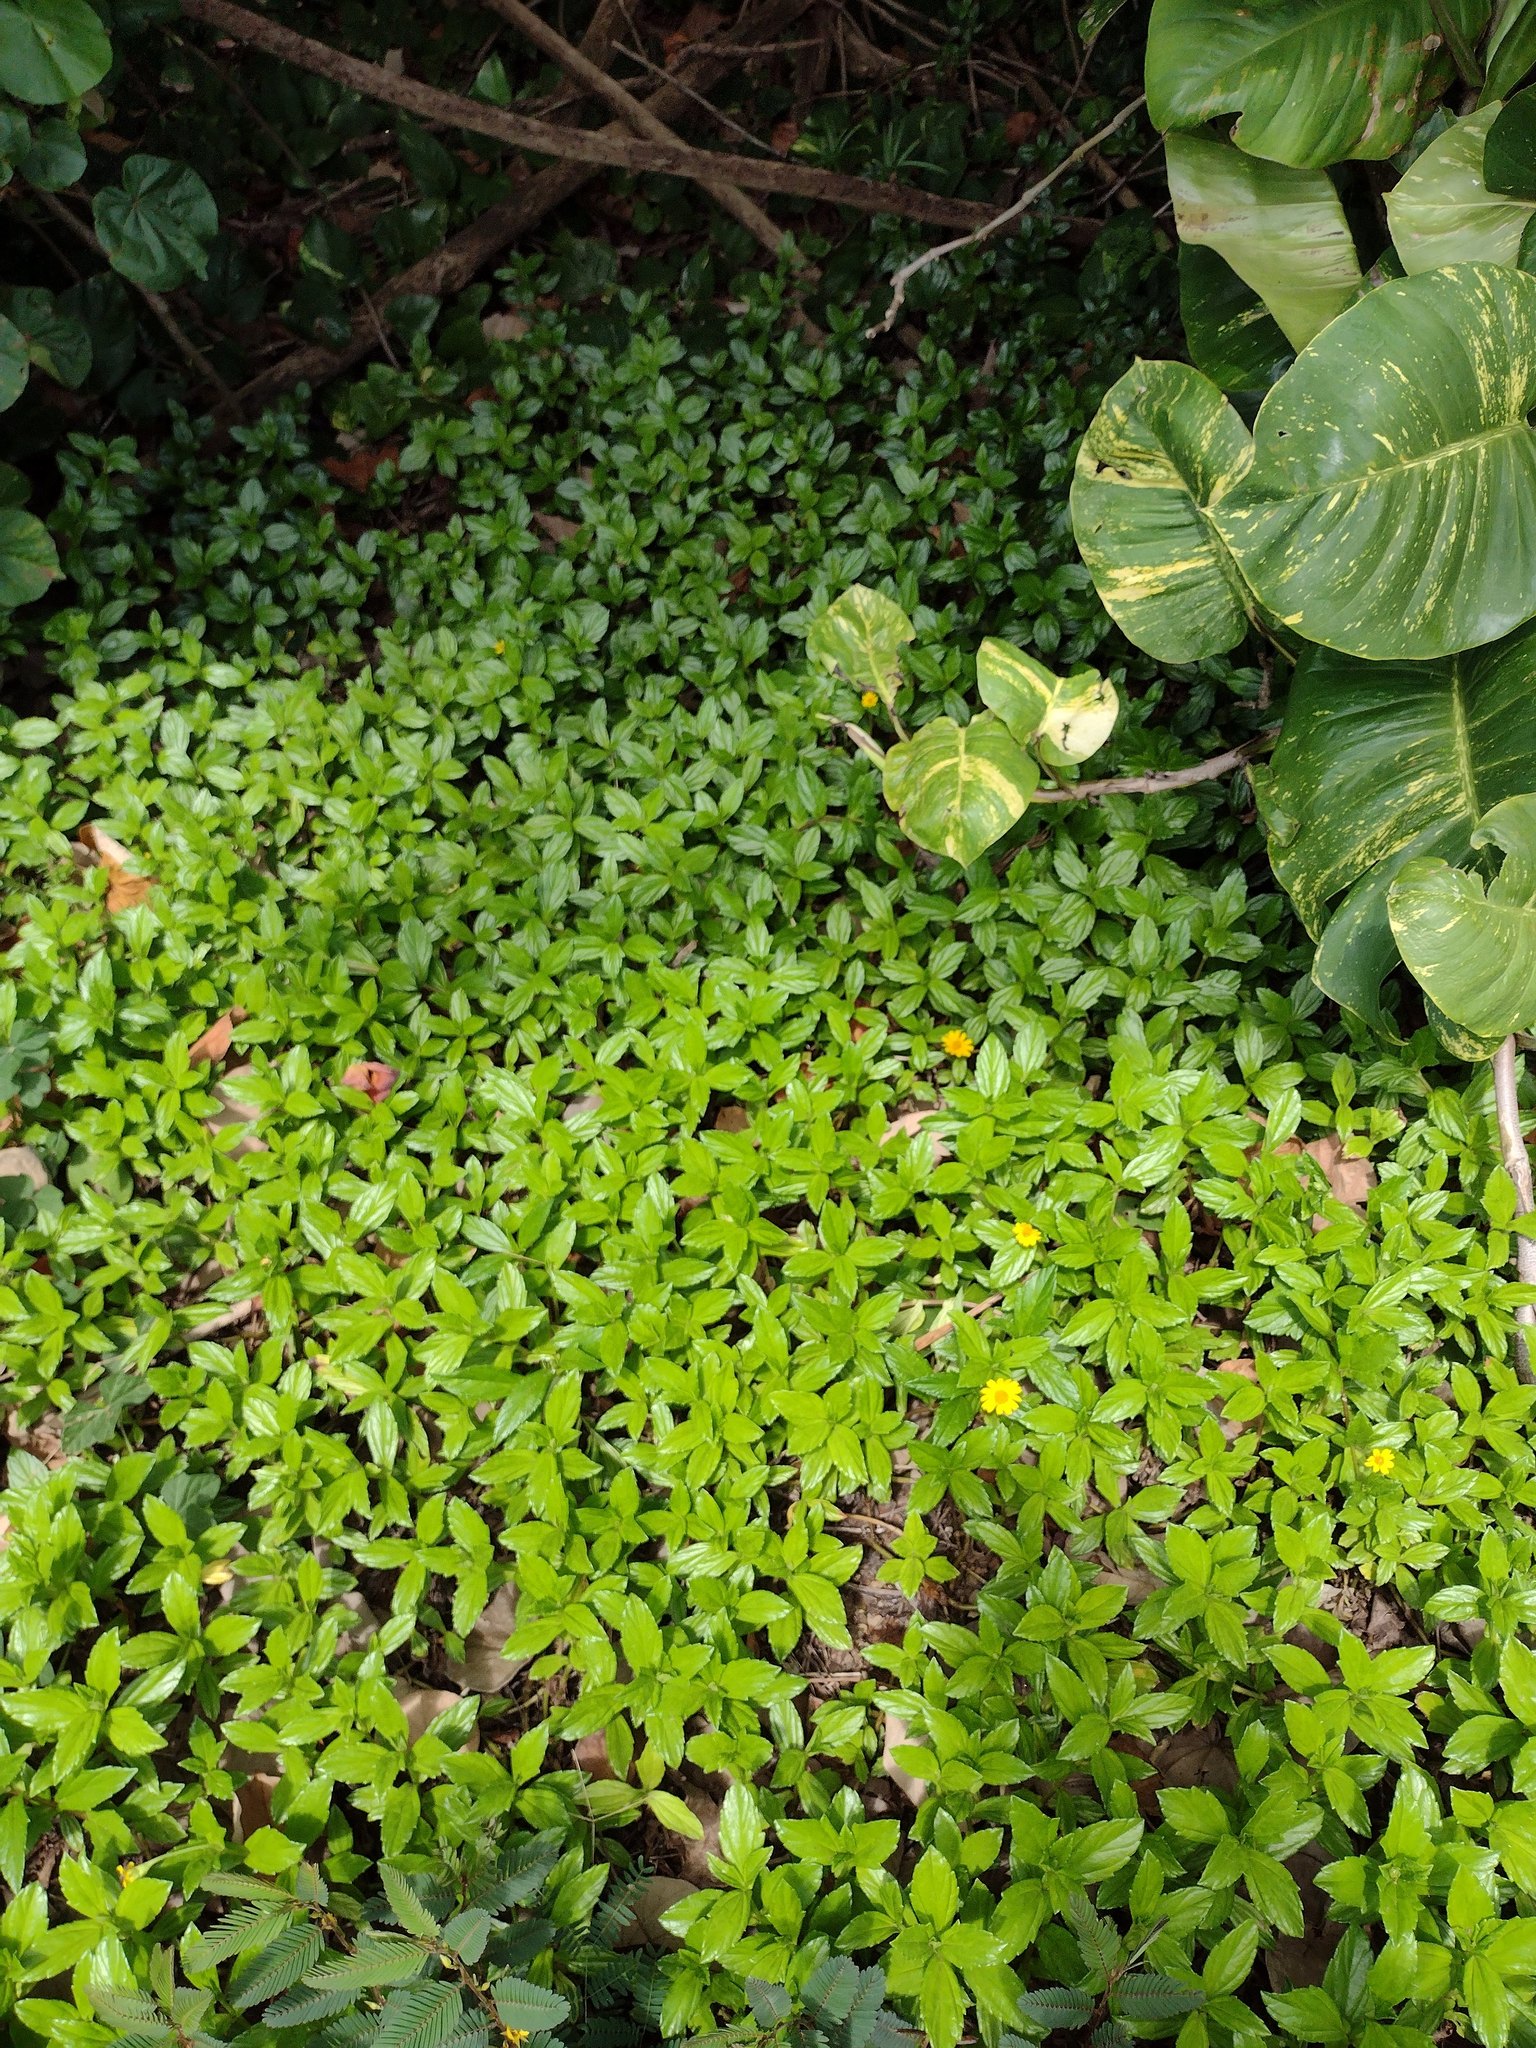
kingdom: Plantae
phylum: Tracheophyta
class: Magnoliopsida
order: Asterales
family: Asteraceae
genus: Sphagneticola
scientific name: Sphagneticola trilobata
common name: Bay biscayne creeping-oxeye
